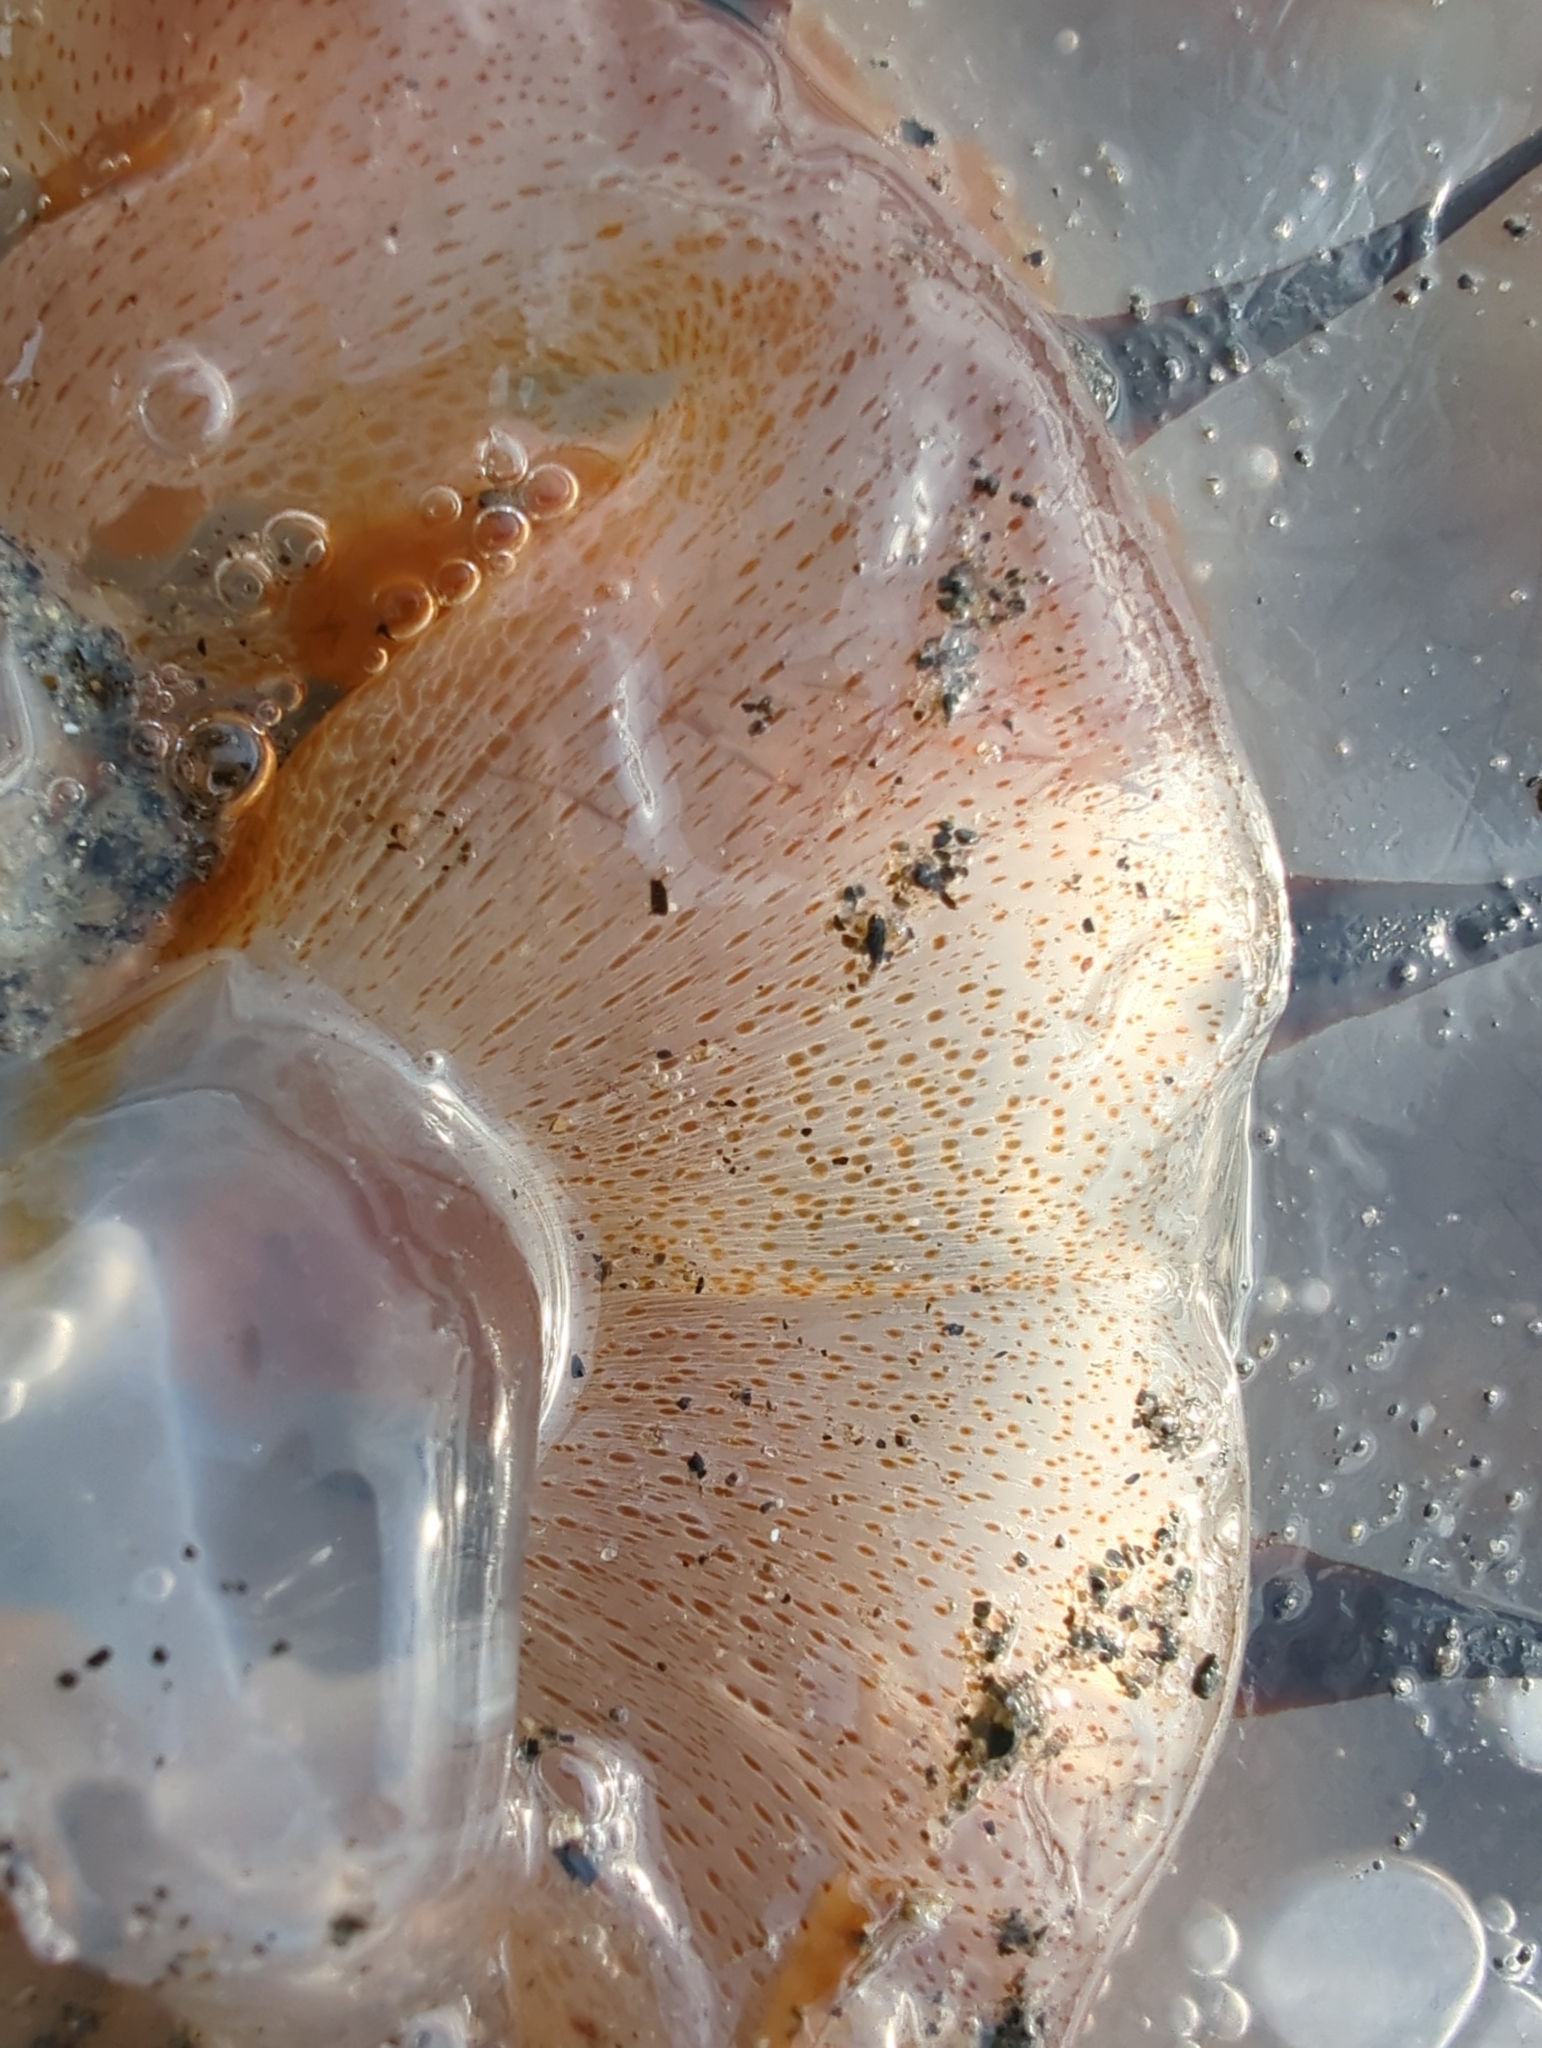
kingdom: Animalia
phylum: Cnidaria
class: Scyphozoa
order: Semaeostomeae
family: Pelagiidae
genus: Chrysaora
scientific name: Chrysaora melanaster
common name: Northern sea nettle
